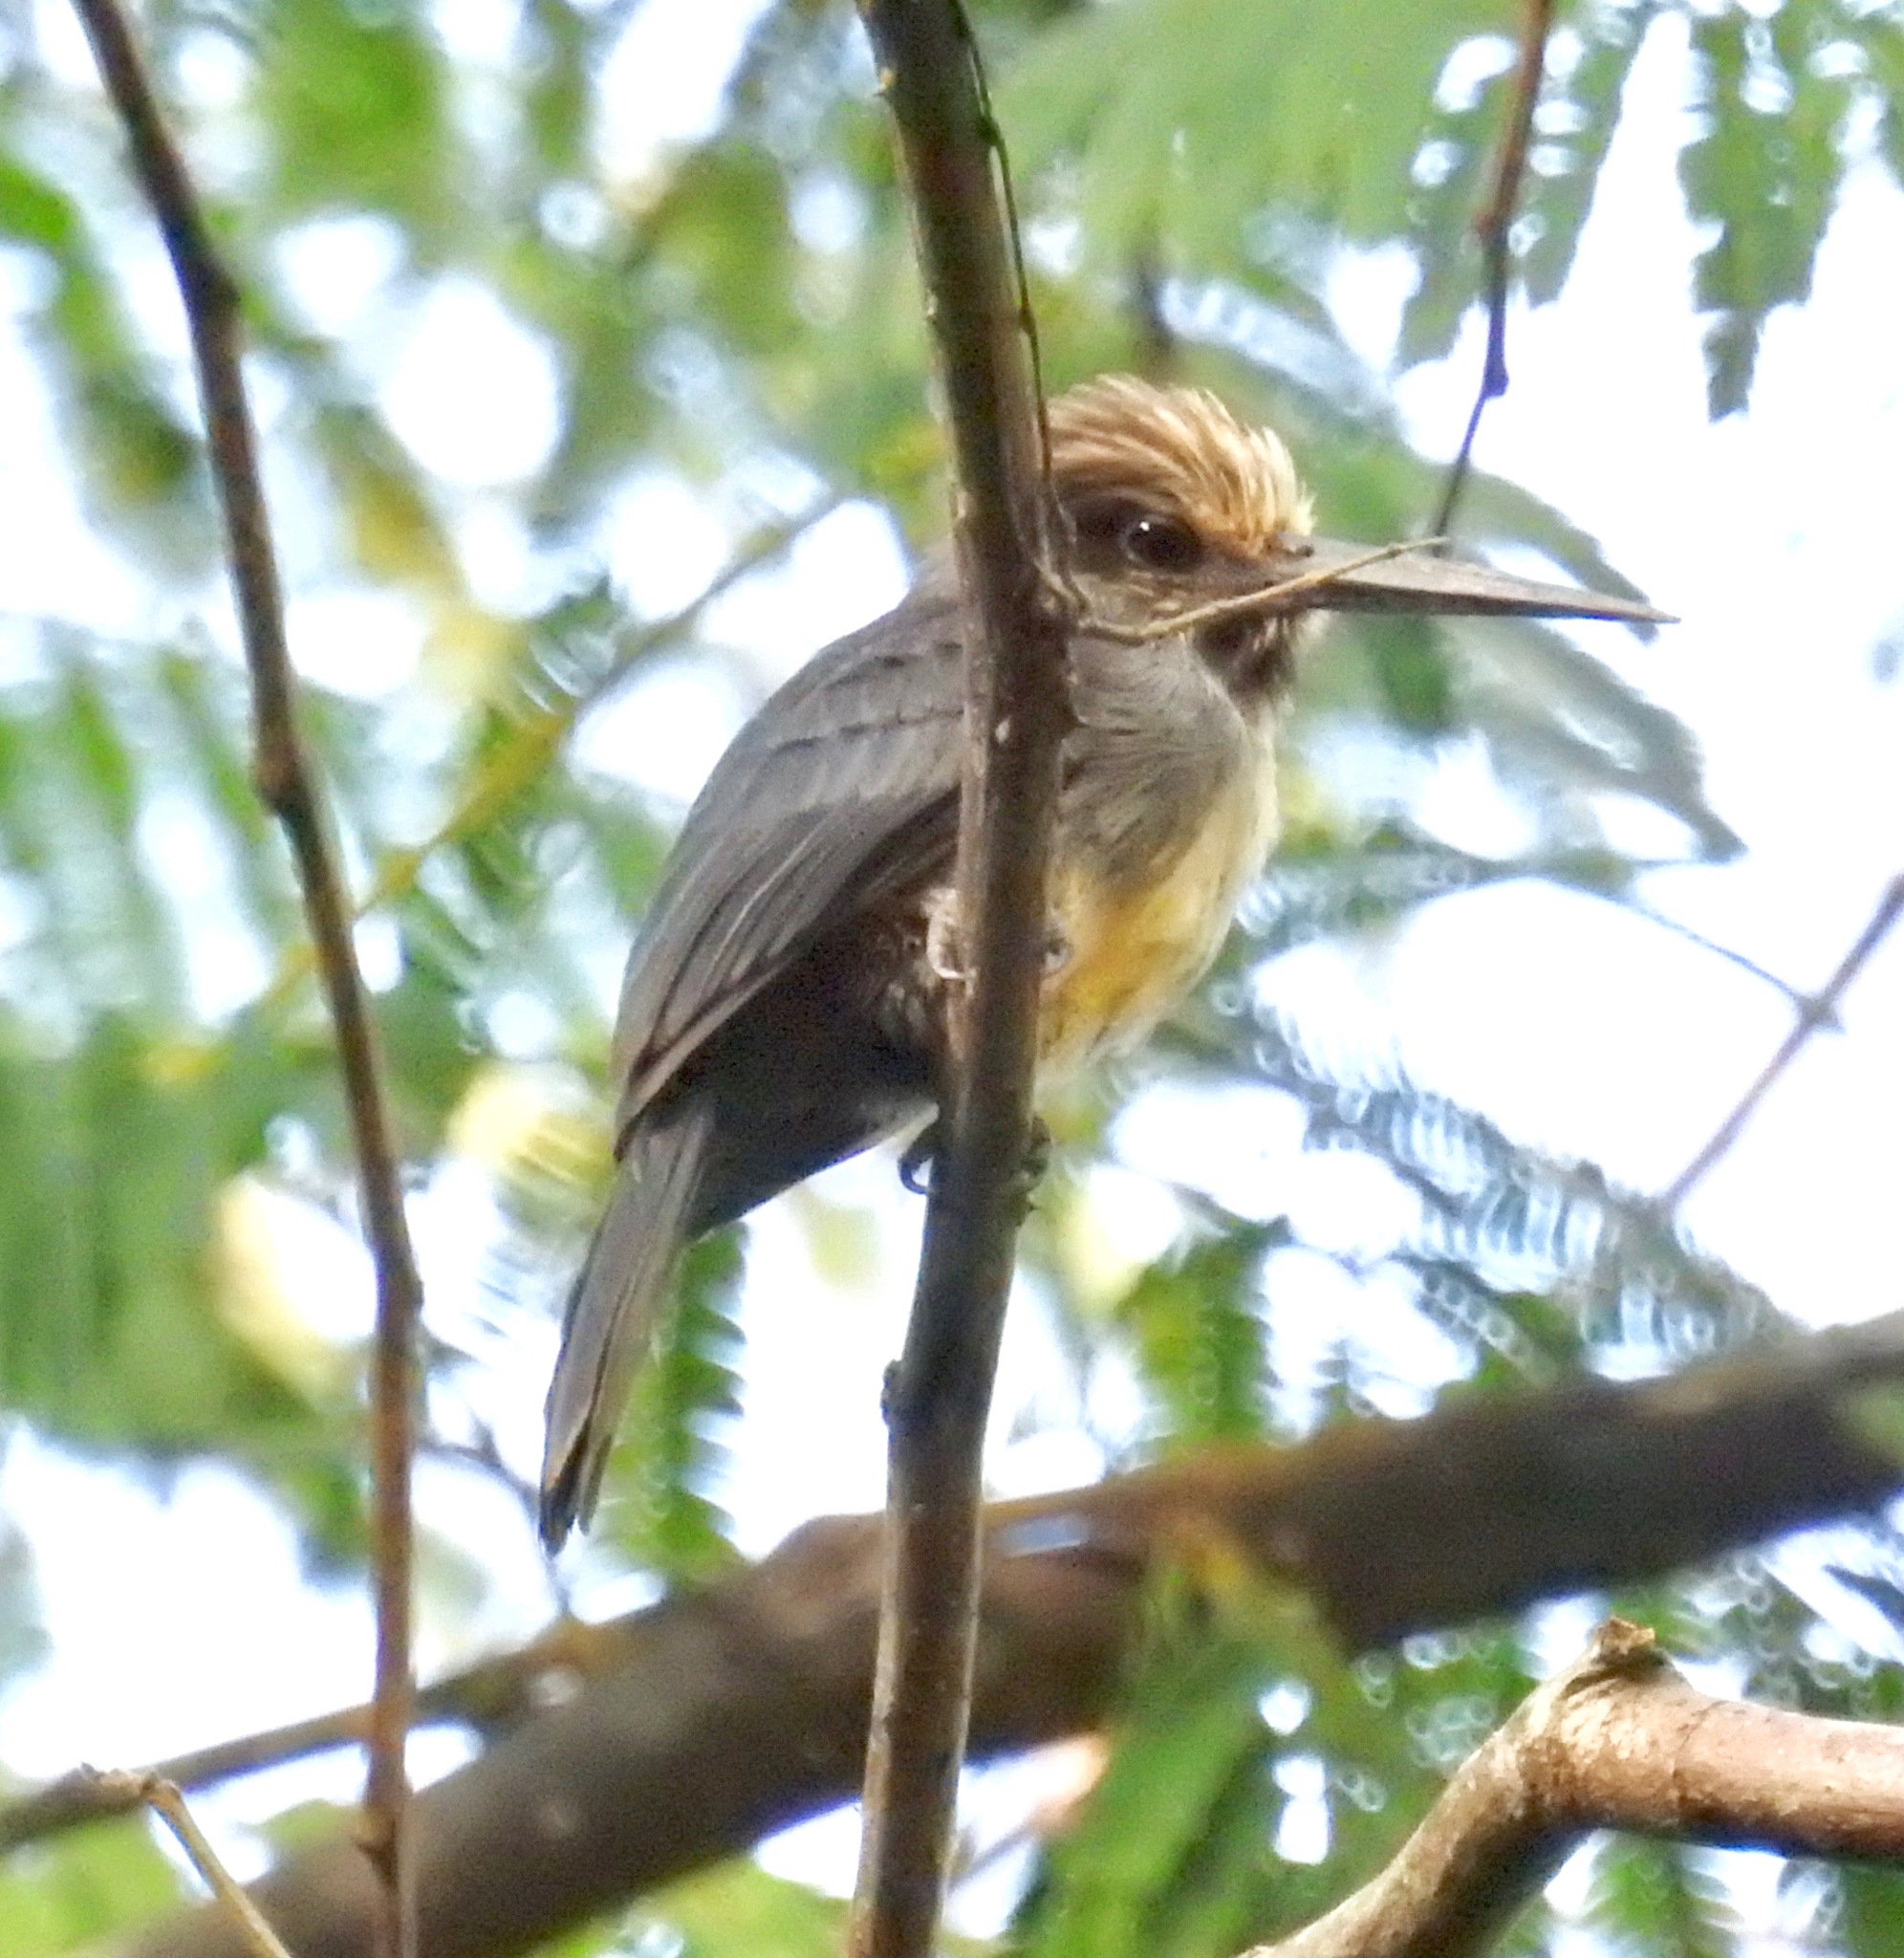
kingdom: Animalia
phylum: Chordata
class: Aves
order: Piciformes
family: Galbulidae
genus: Jacamaralcyon
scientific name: Jacamaralcyon tridactyla
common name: Three-toed jacamar
